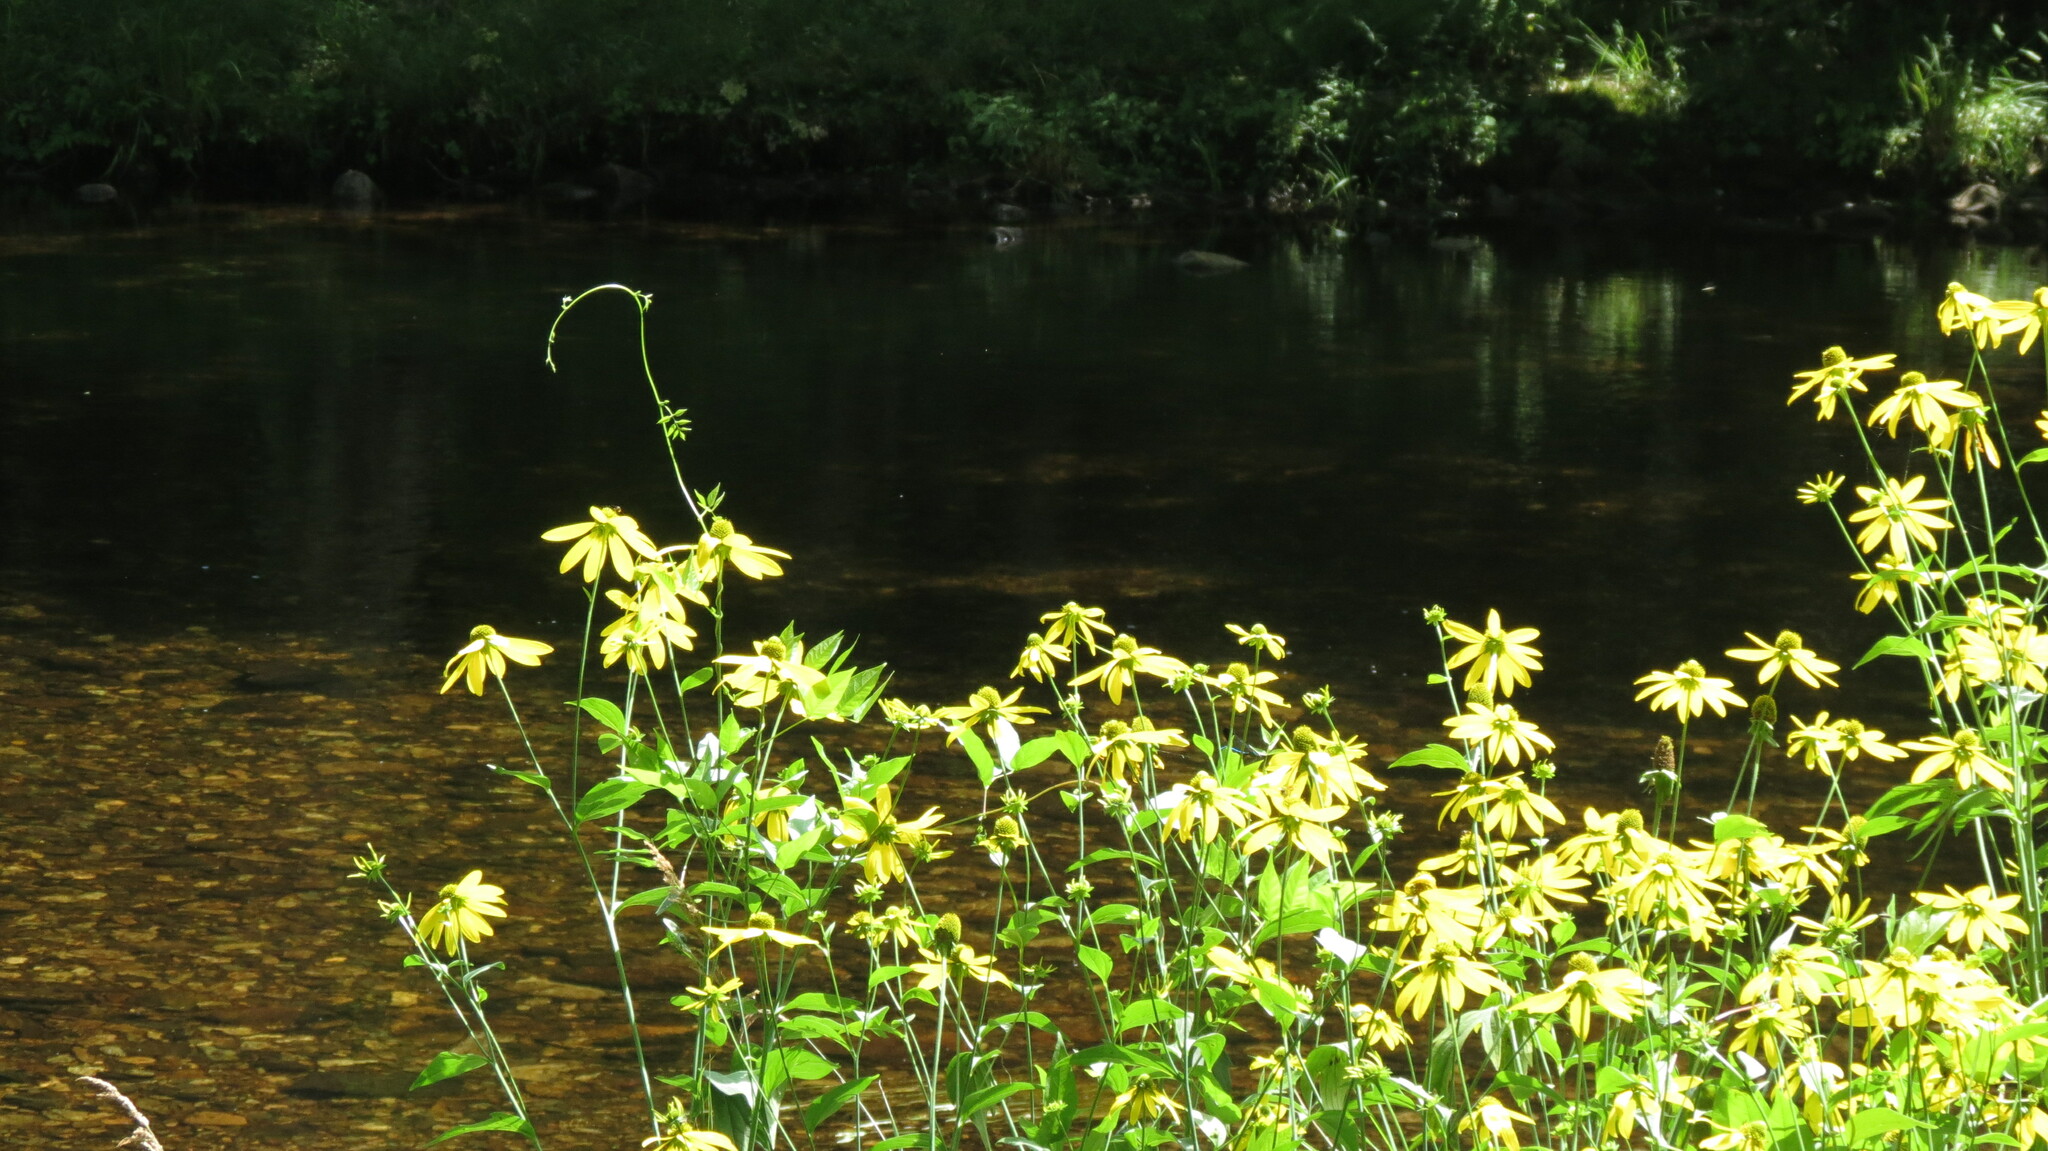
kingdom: Plantae
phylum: Tracheophyta
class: Magnoliopsida
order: Asterales
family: Asteraceae
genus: Rudbeckia
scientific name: Rudbeckia laciniata
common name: Coneflower
